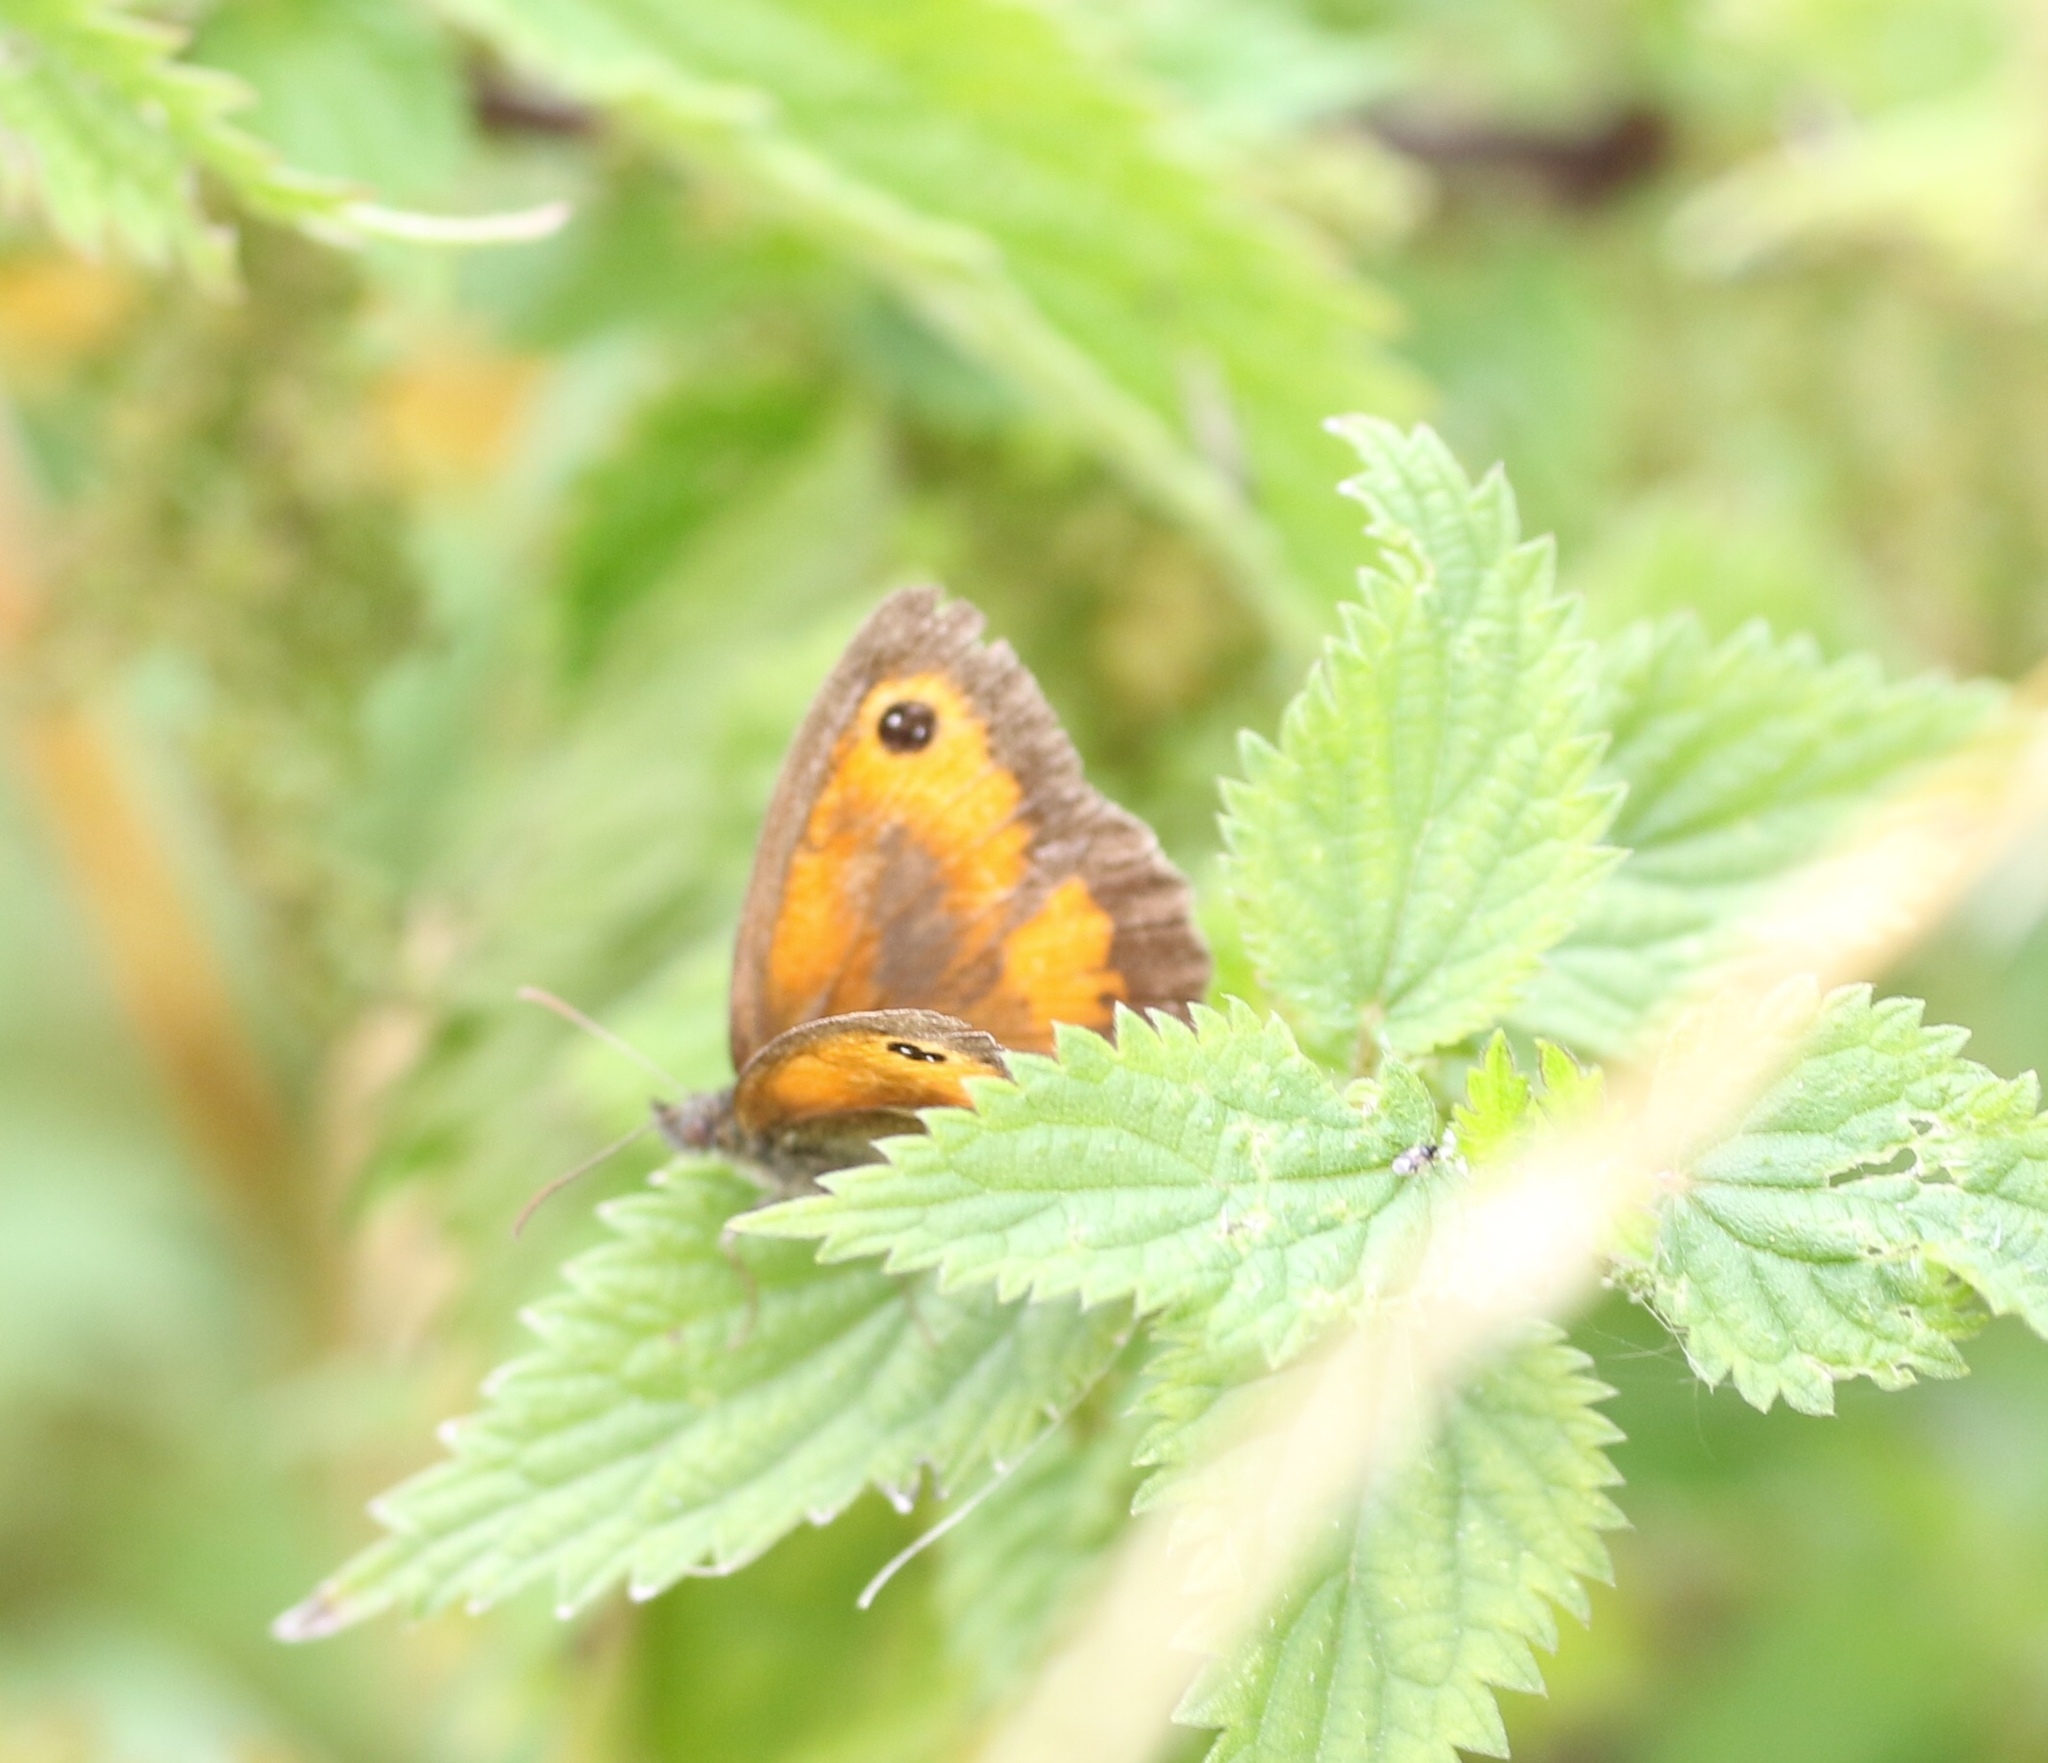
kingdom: Animalia
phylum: Arthropoda
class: Insecta
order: Lepidoptera
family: Nymphalidae
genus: Pyronia
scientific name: Pyronia tithonus
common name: Gatekeeper
